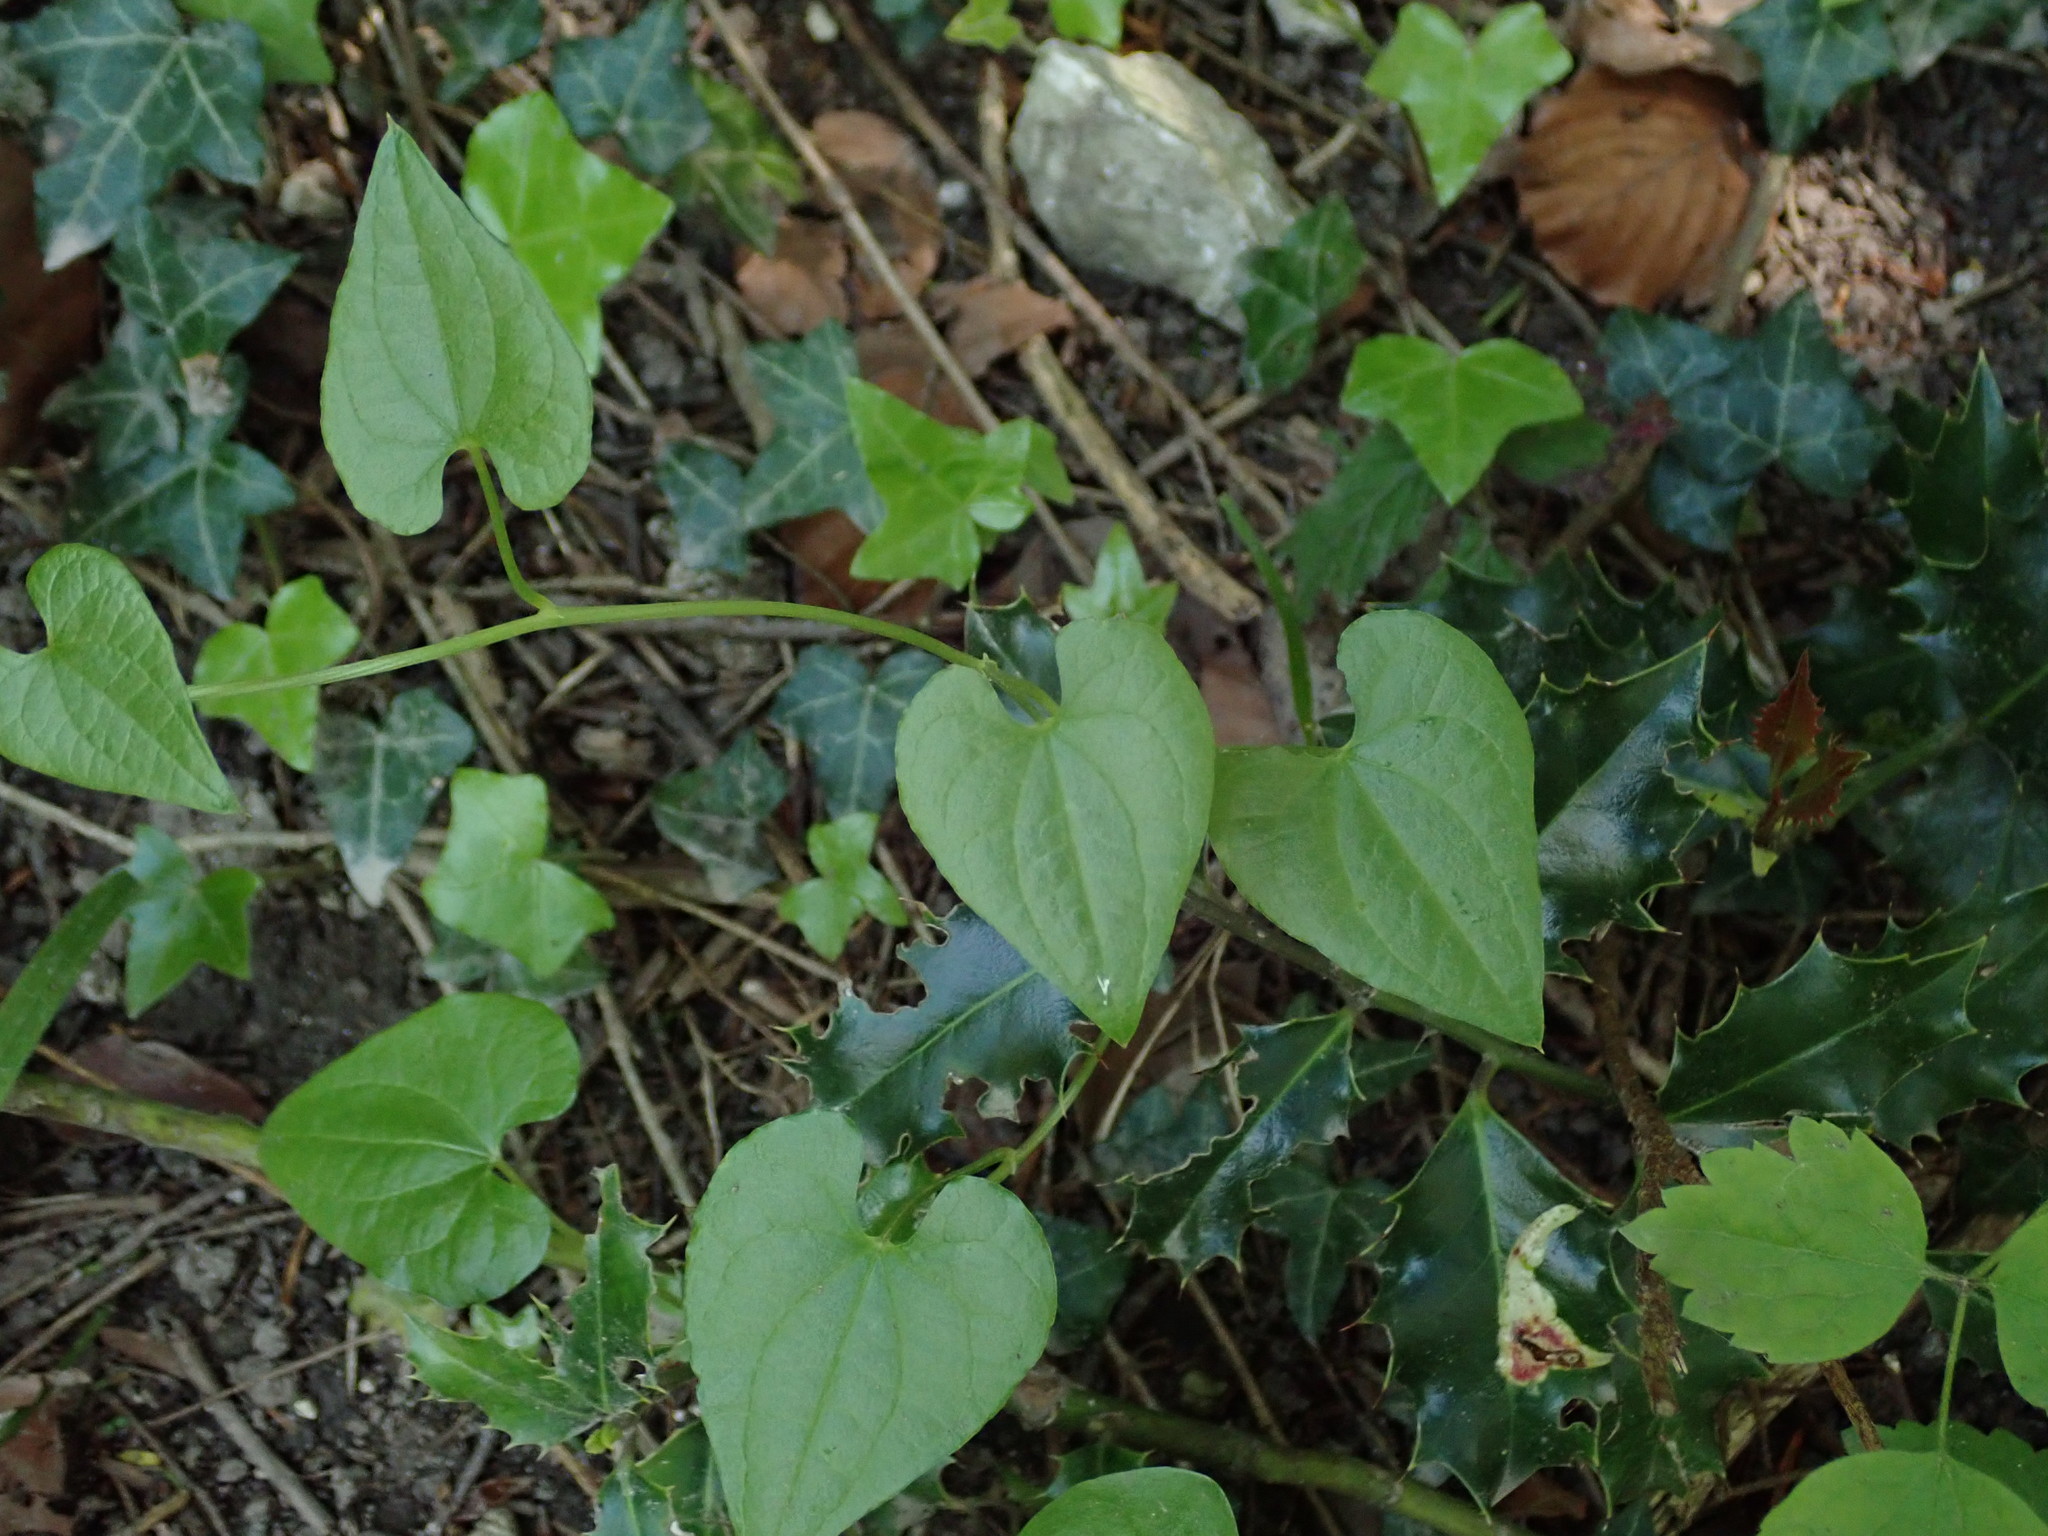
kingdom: Plantae
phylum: Tracheophyta
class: Liliopsida
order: Dioscoreales
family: Dioscoreaceae
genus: Dioscorea
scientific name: Dioscorea communis
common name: Black-bindweed
